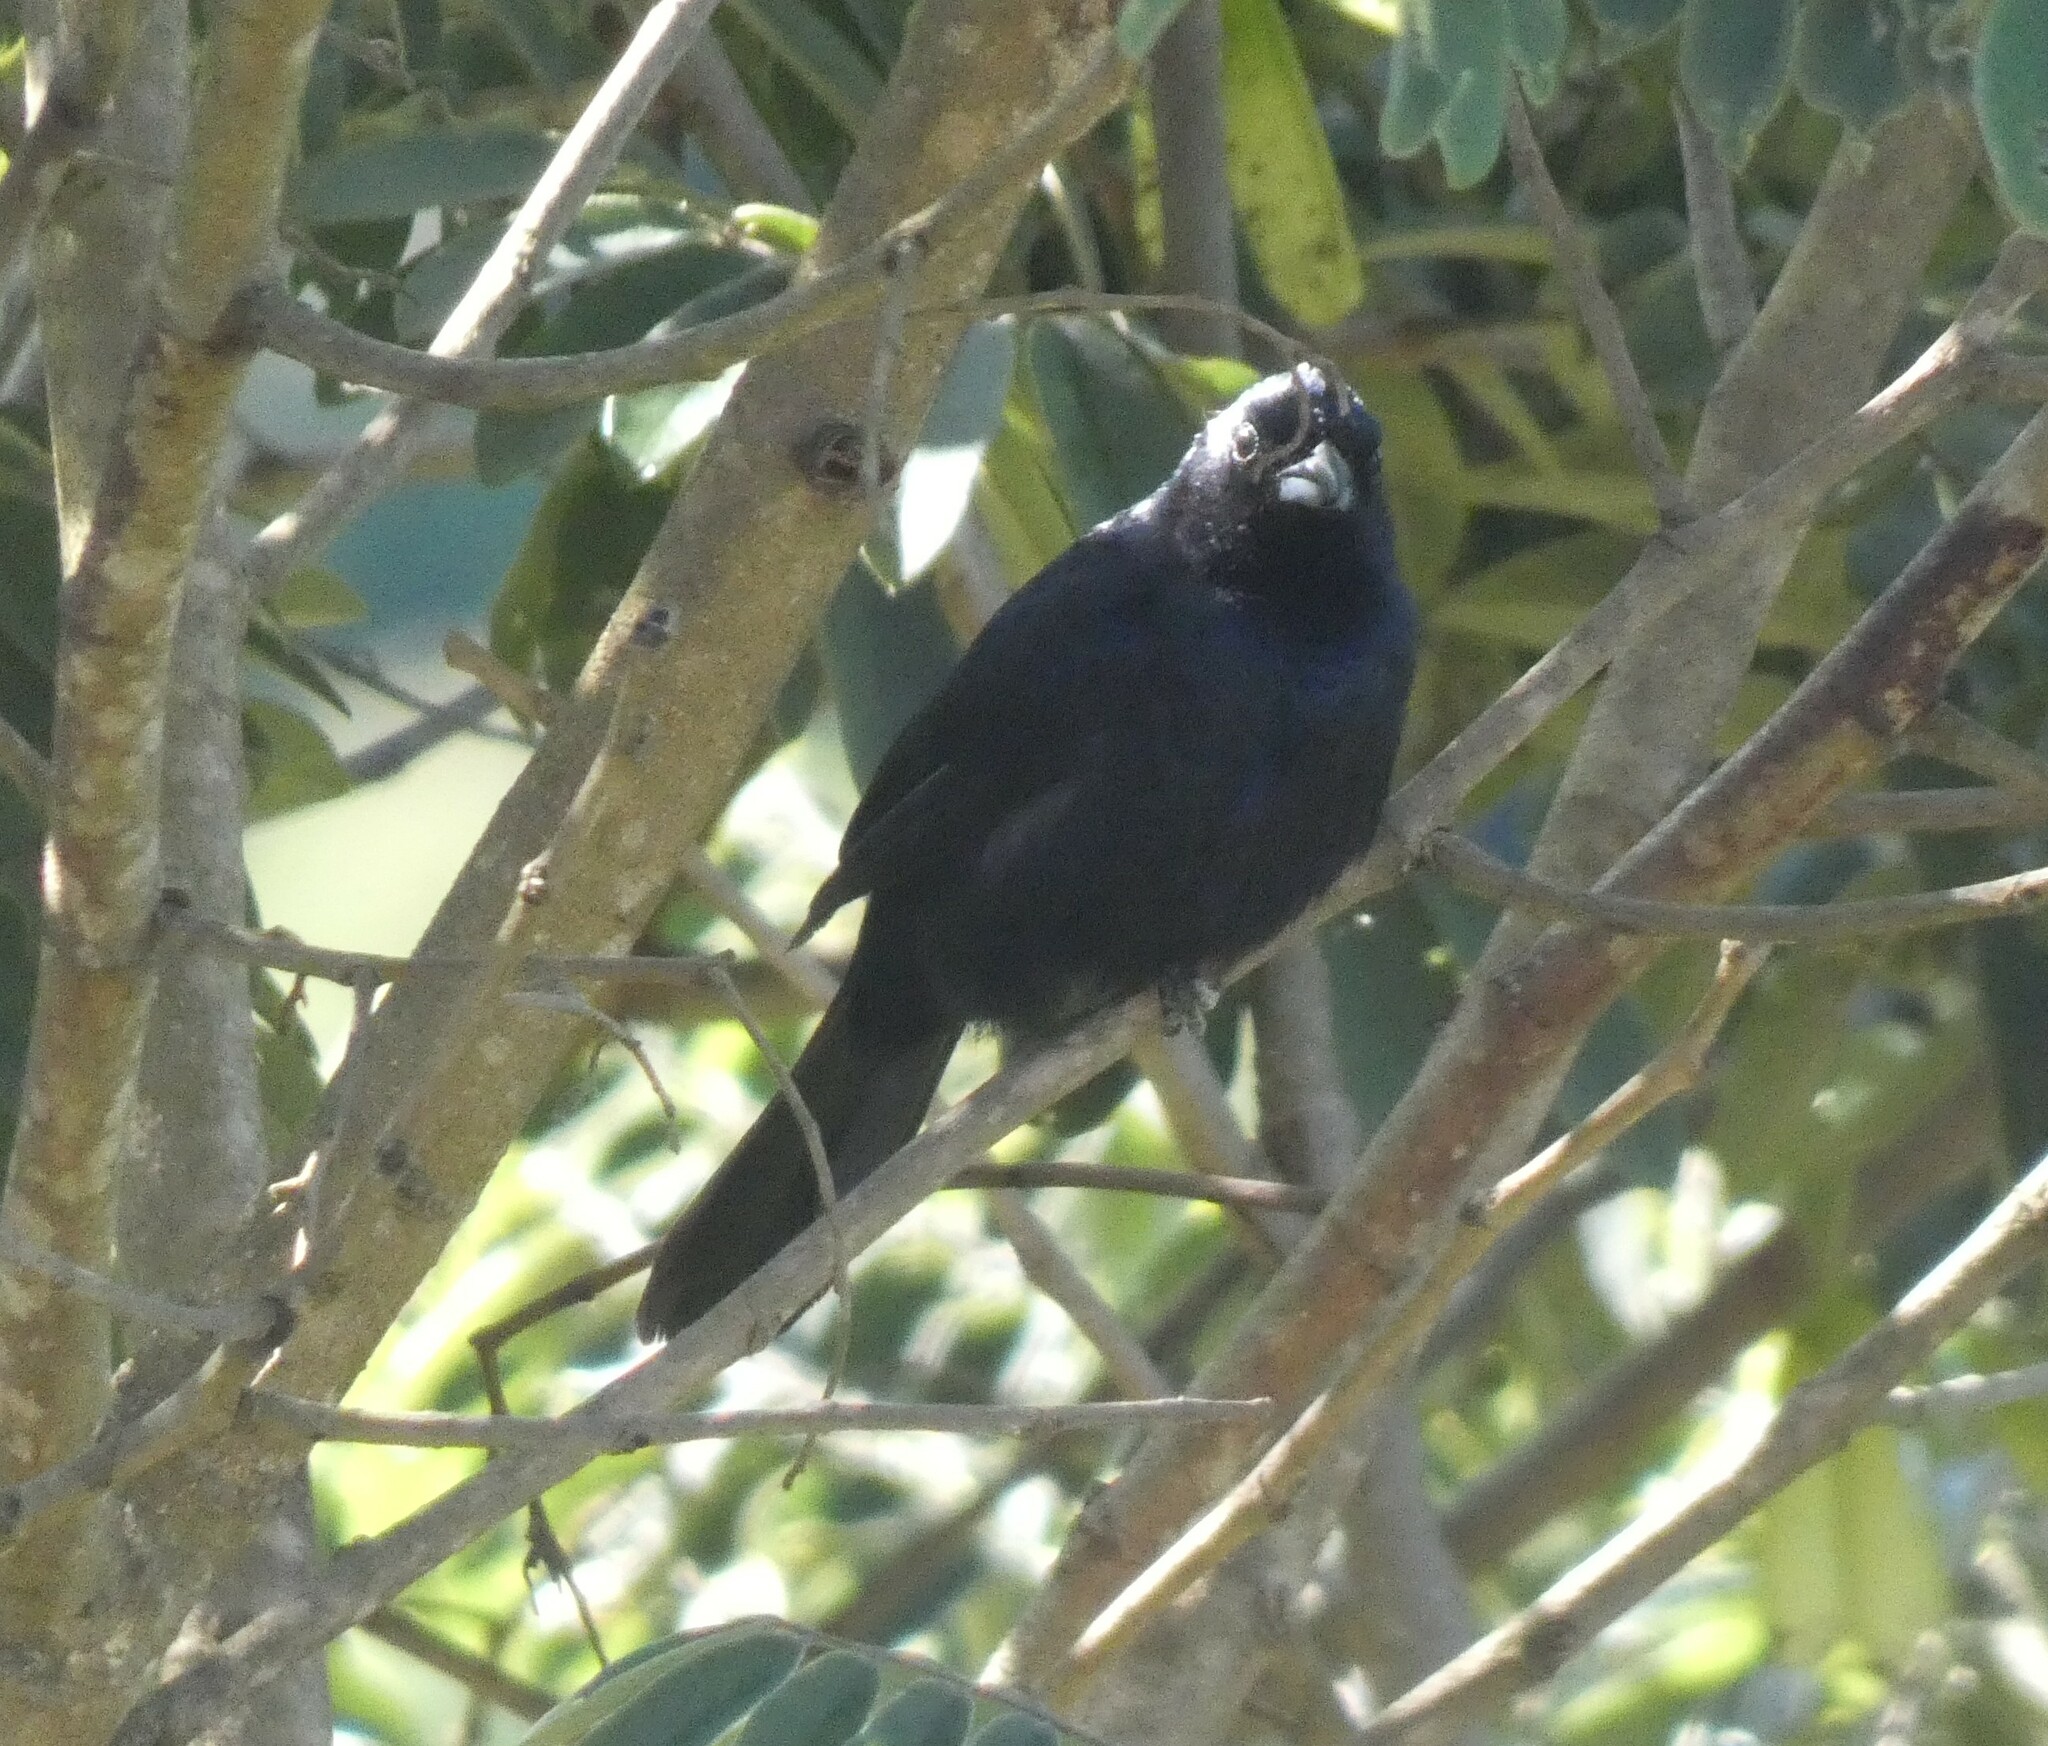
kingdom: Animalia
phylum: Chordata
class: Aves
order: Passeriformes
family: Thraupidae
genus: Tachyphonus
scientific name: Tachyphonus coronatus
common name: Ruby-crowned tanager
